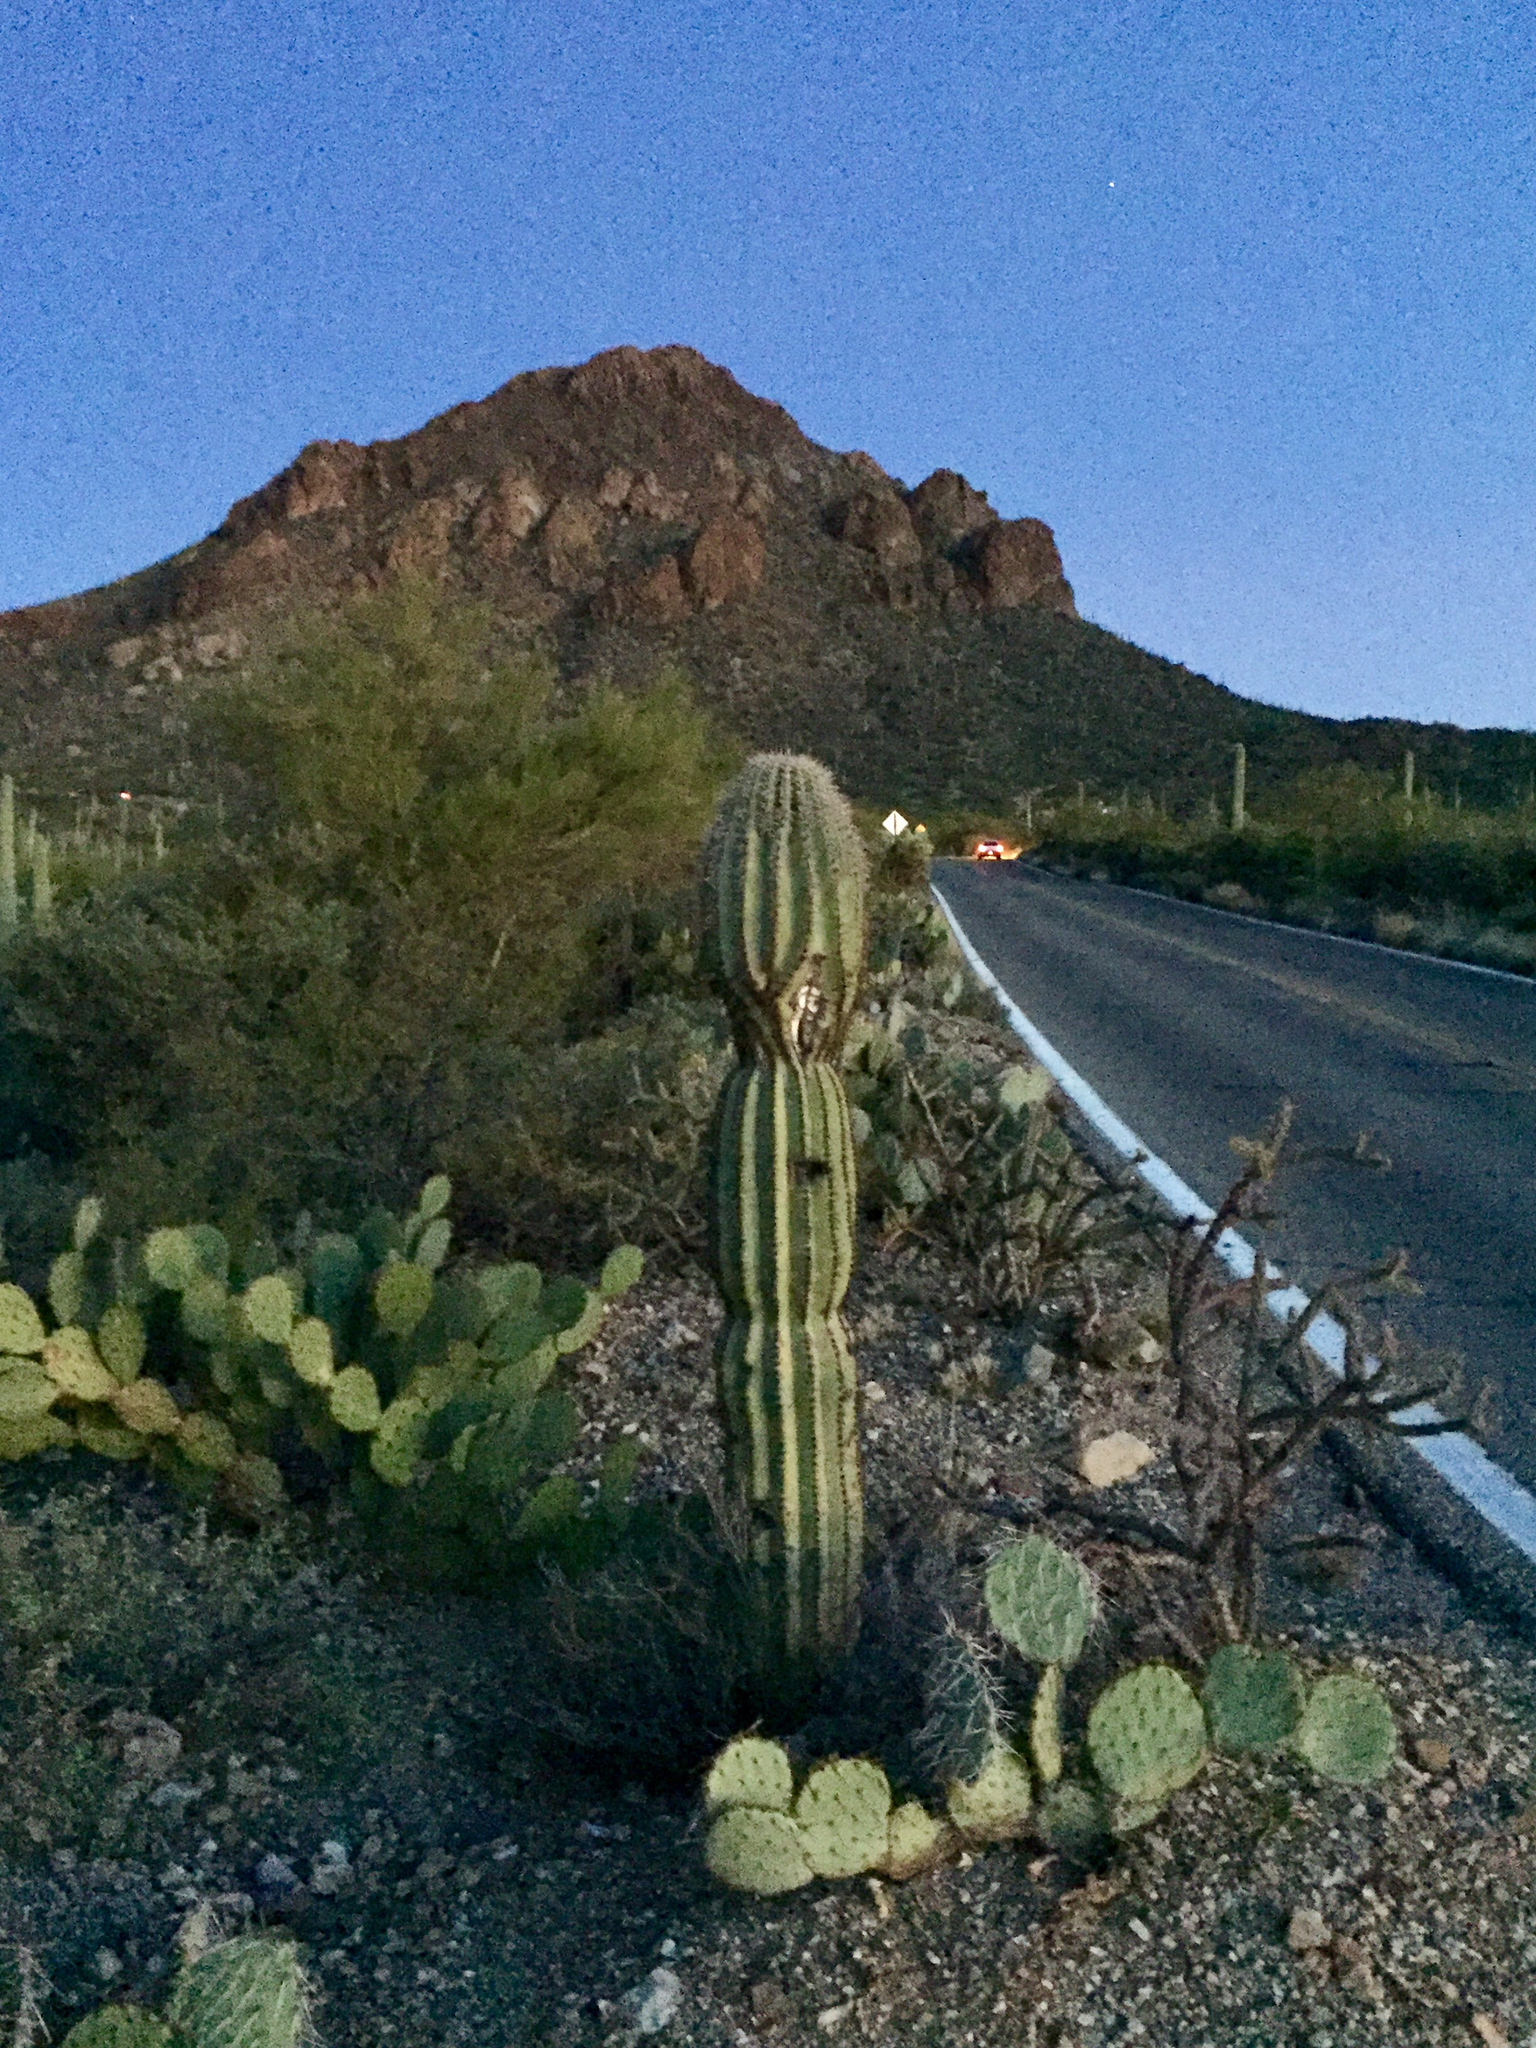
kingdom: Plantae
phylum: Tracheophyta
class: Magnoliopsida
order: Caryophyllales
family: Cactaceae
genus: Carnegiea
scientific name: Carnegiea gigantea
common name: Saguaro
